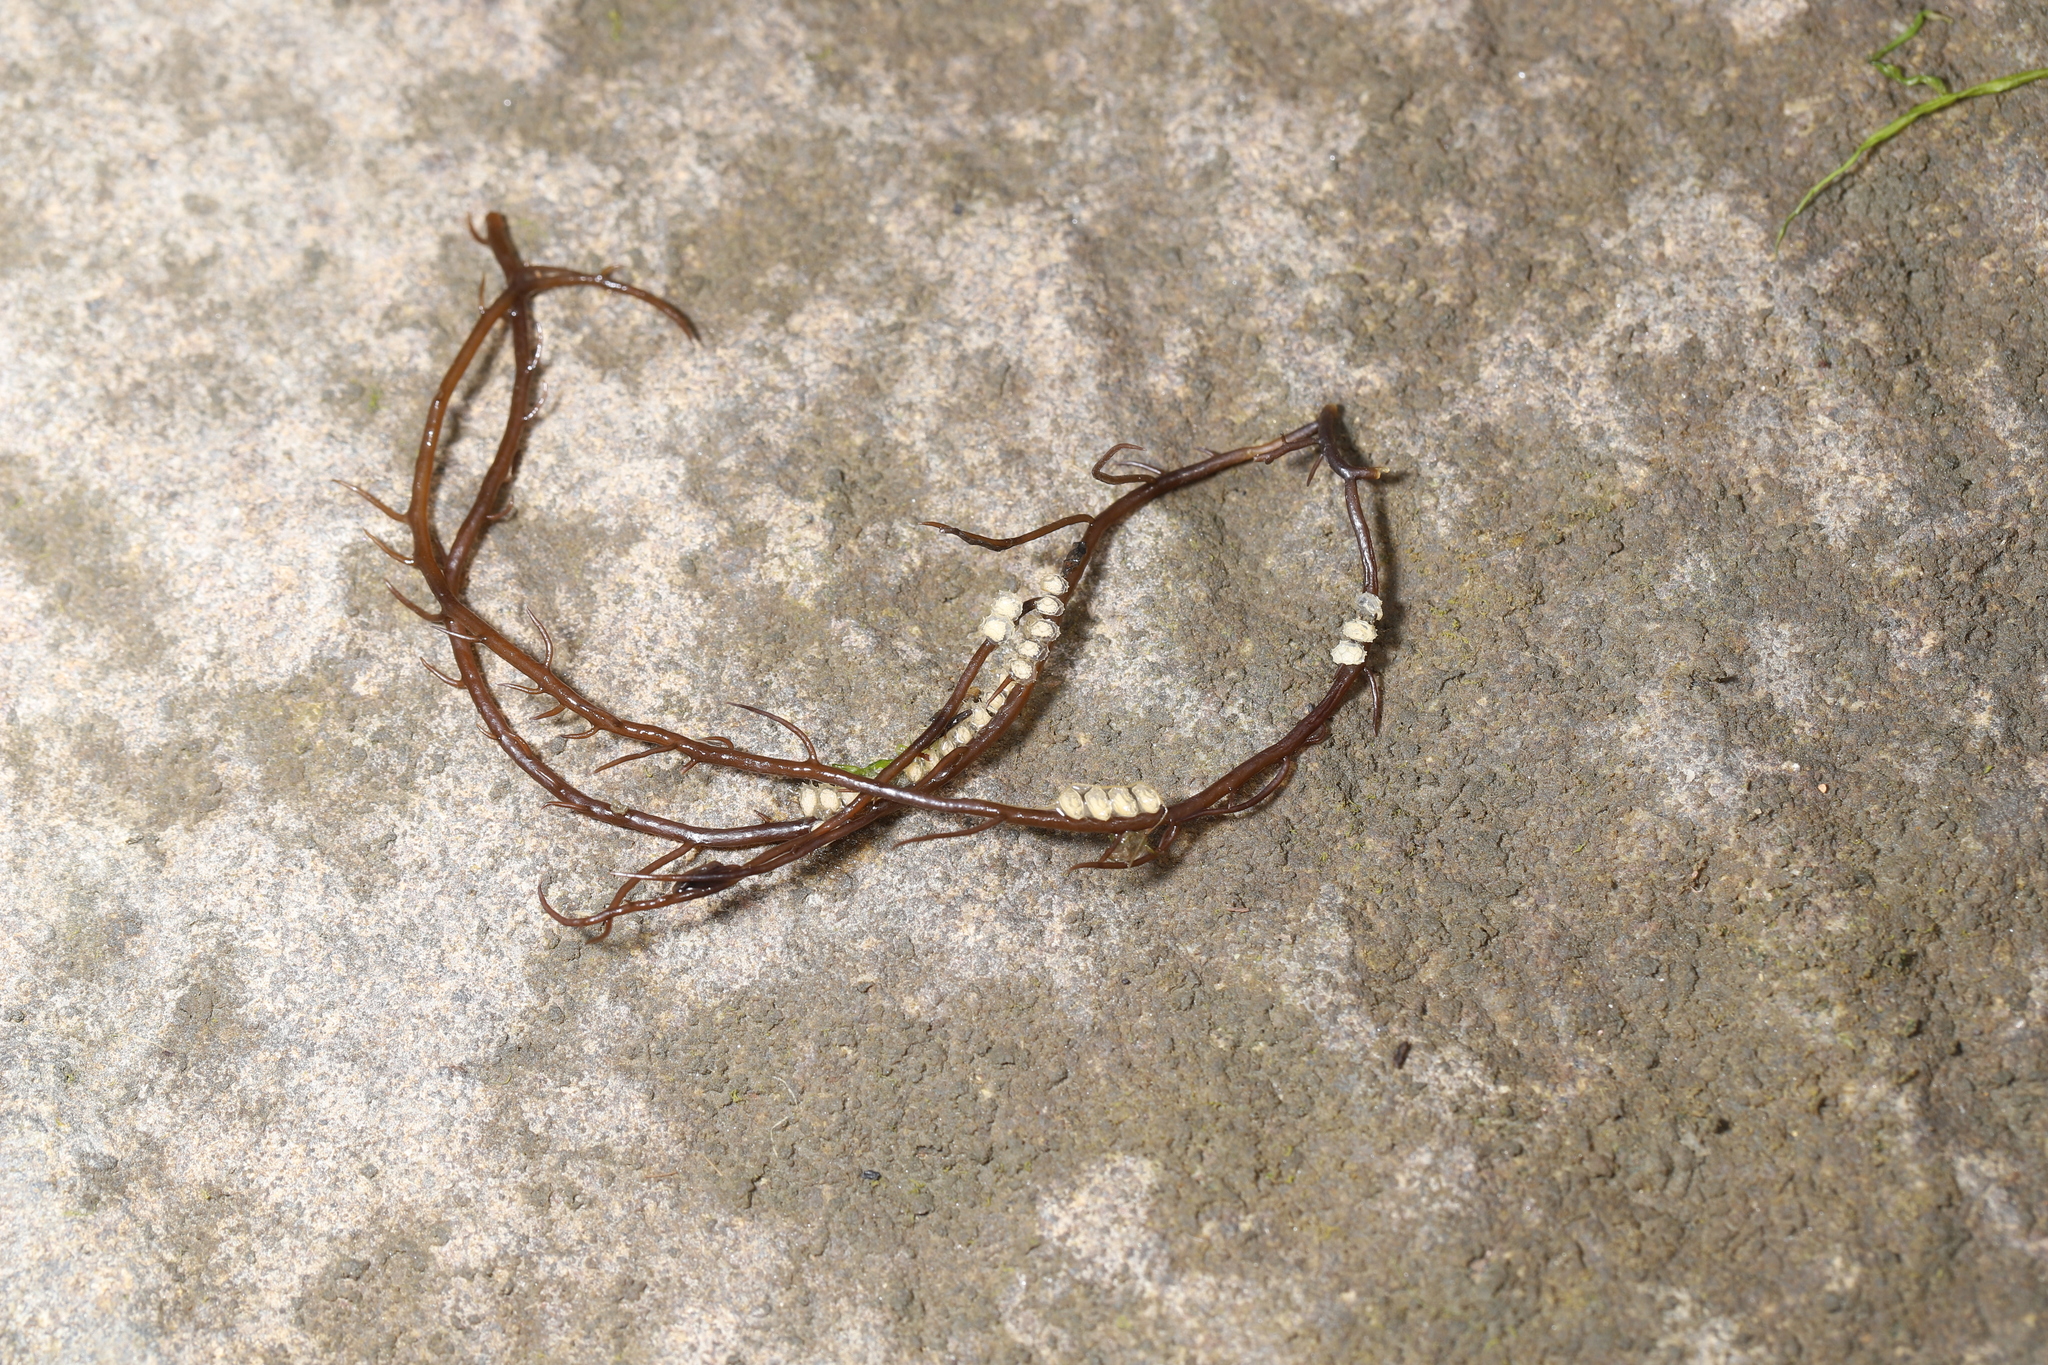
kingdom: Animalia
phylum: Mollusca
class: Gastropoda
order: Neogastropoda
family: Nassariidae
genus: Ilyanassa
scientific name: Ilyanassa obsoleta
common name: Eastern mudsnail
